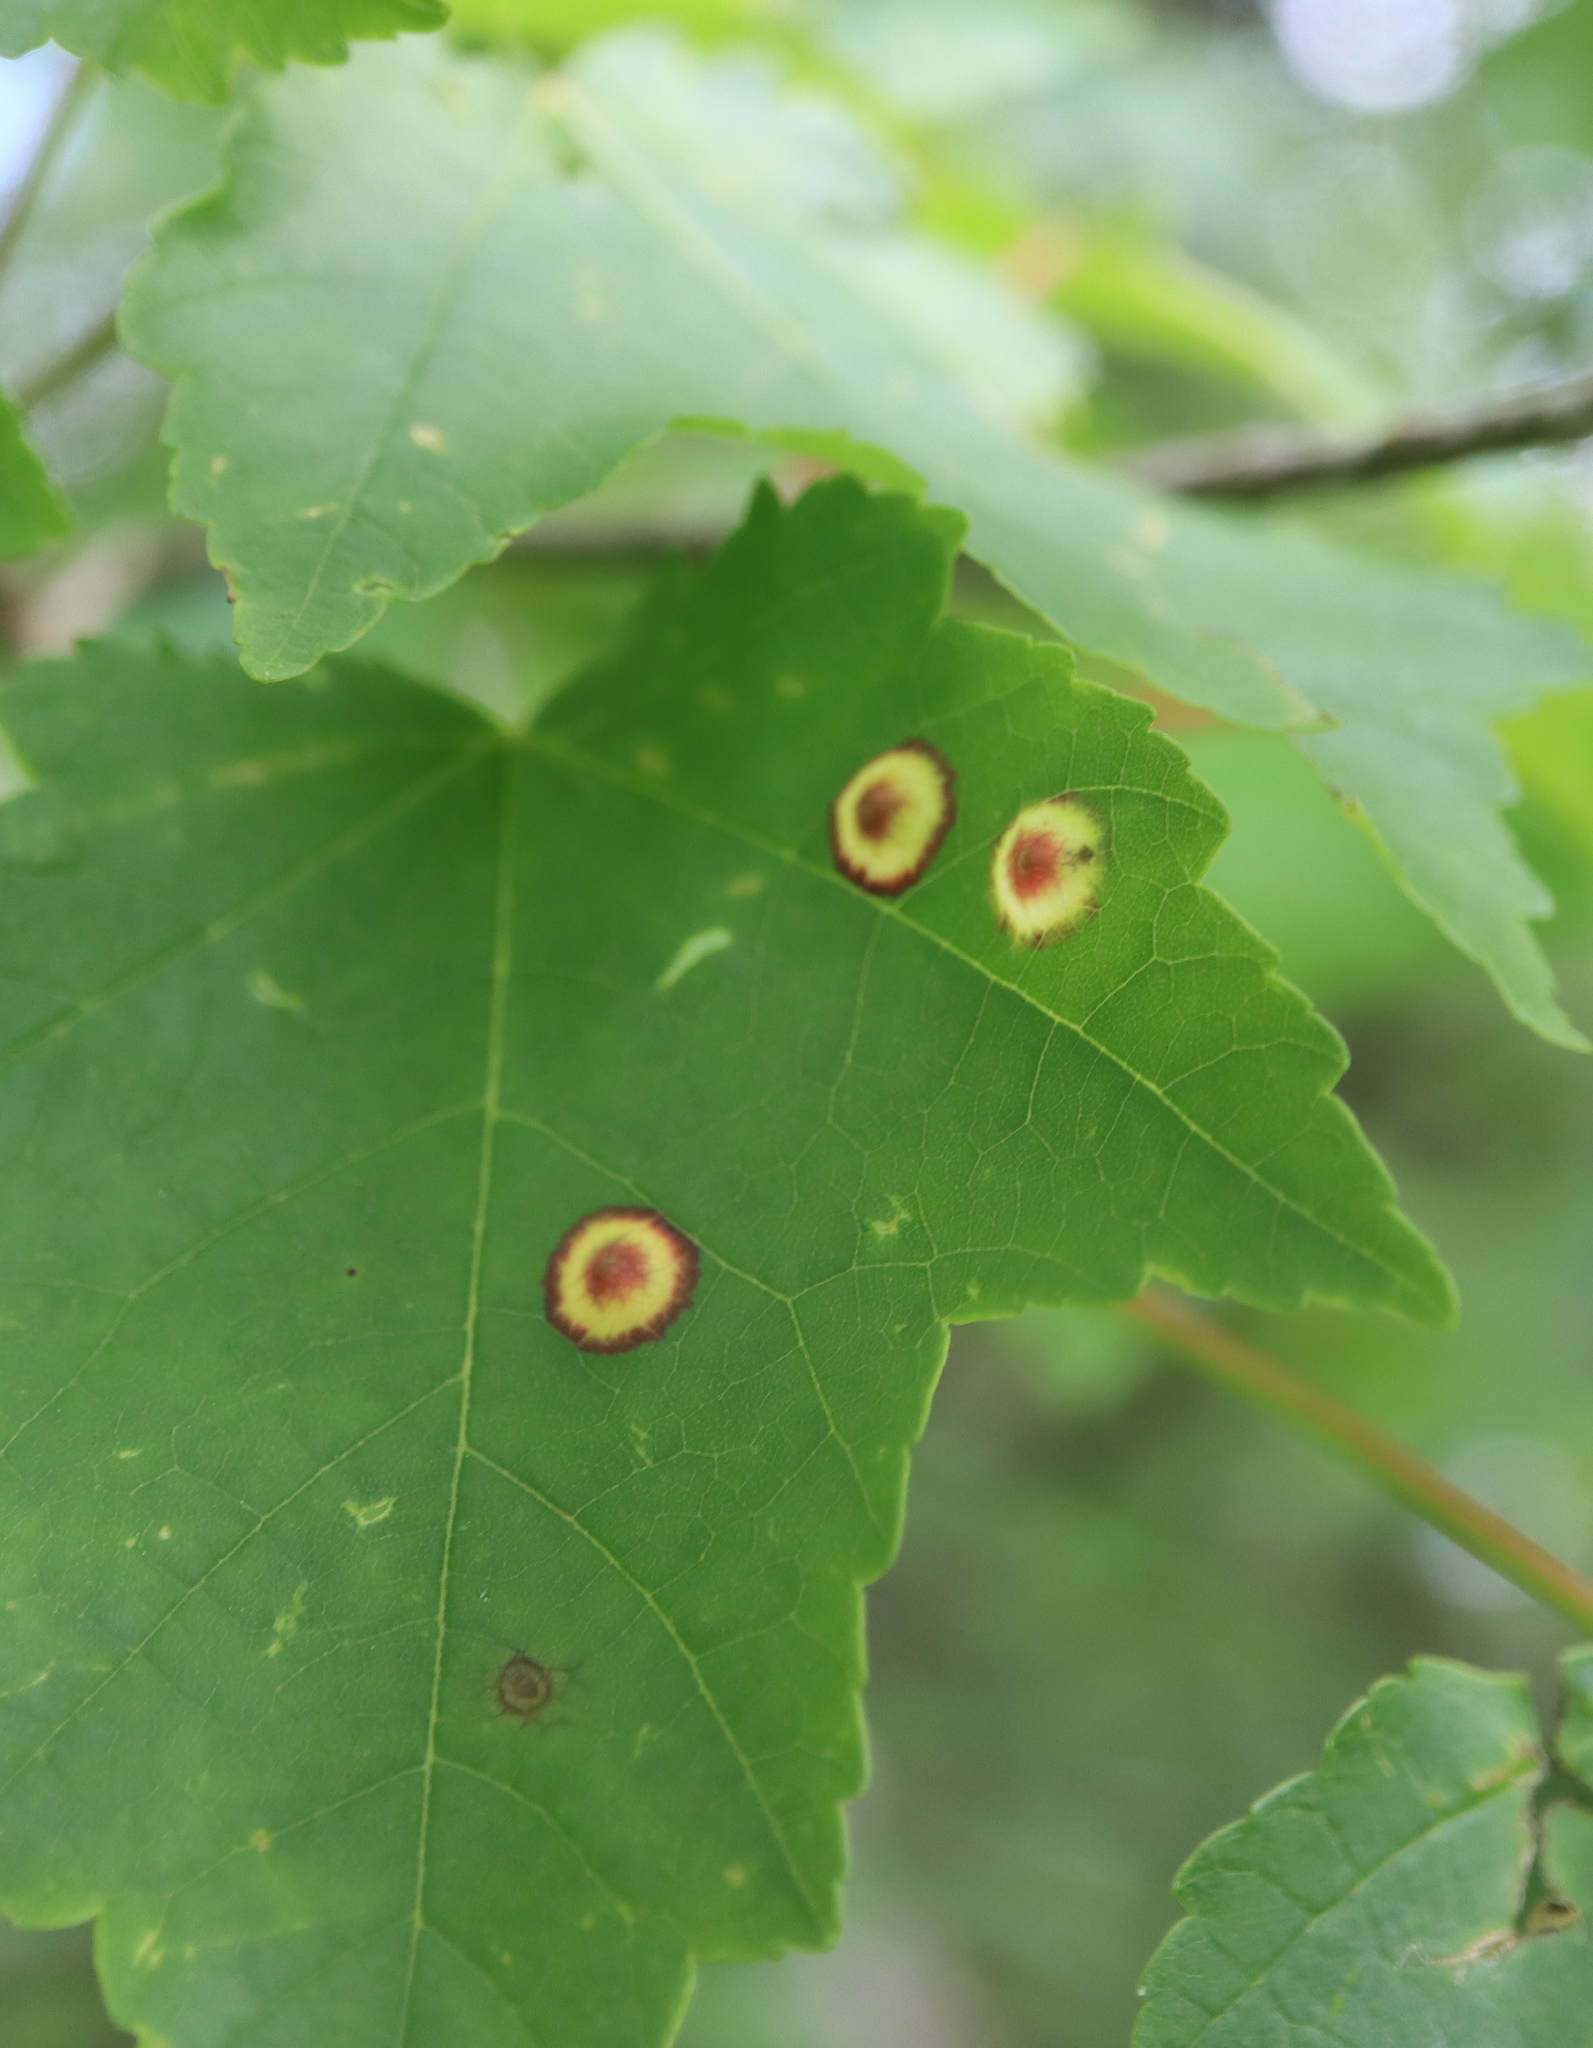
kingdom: Animalia
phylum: Arthropoda
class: Insecta
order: Diptera
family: Cecidomyiidae
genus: Acericecis
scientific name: Acericecis ocellaris
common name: Ocellate gall midge
